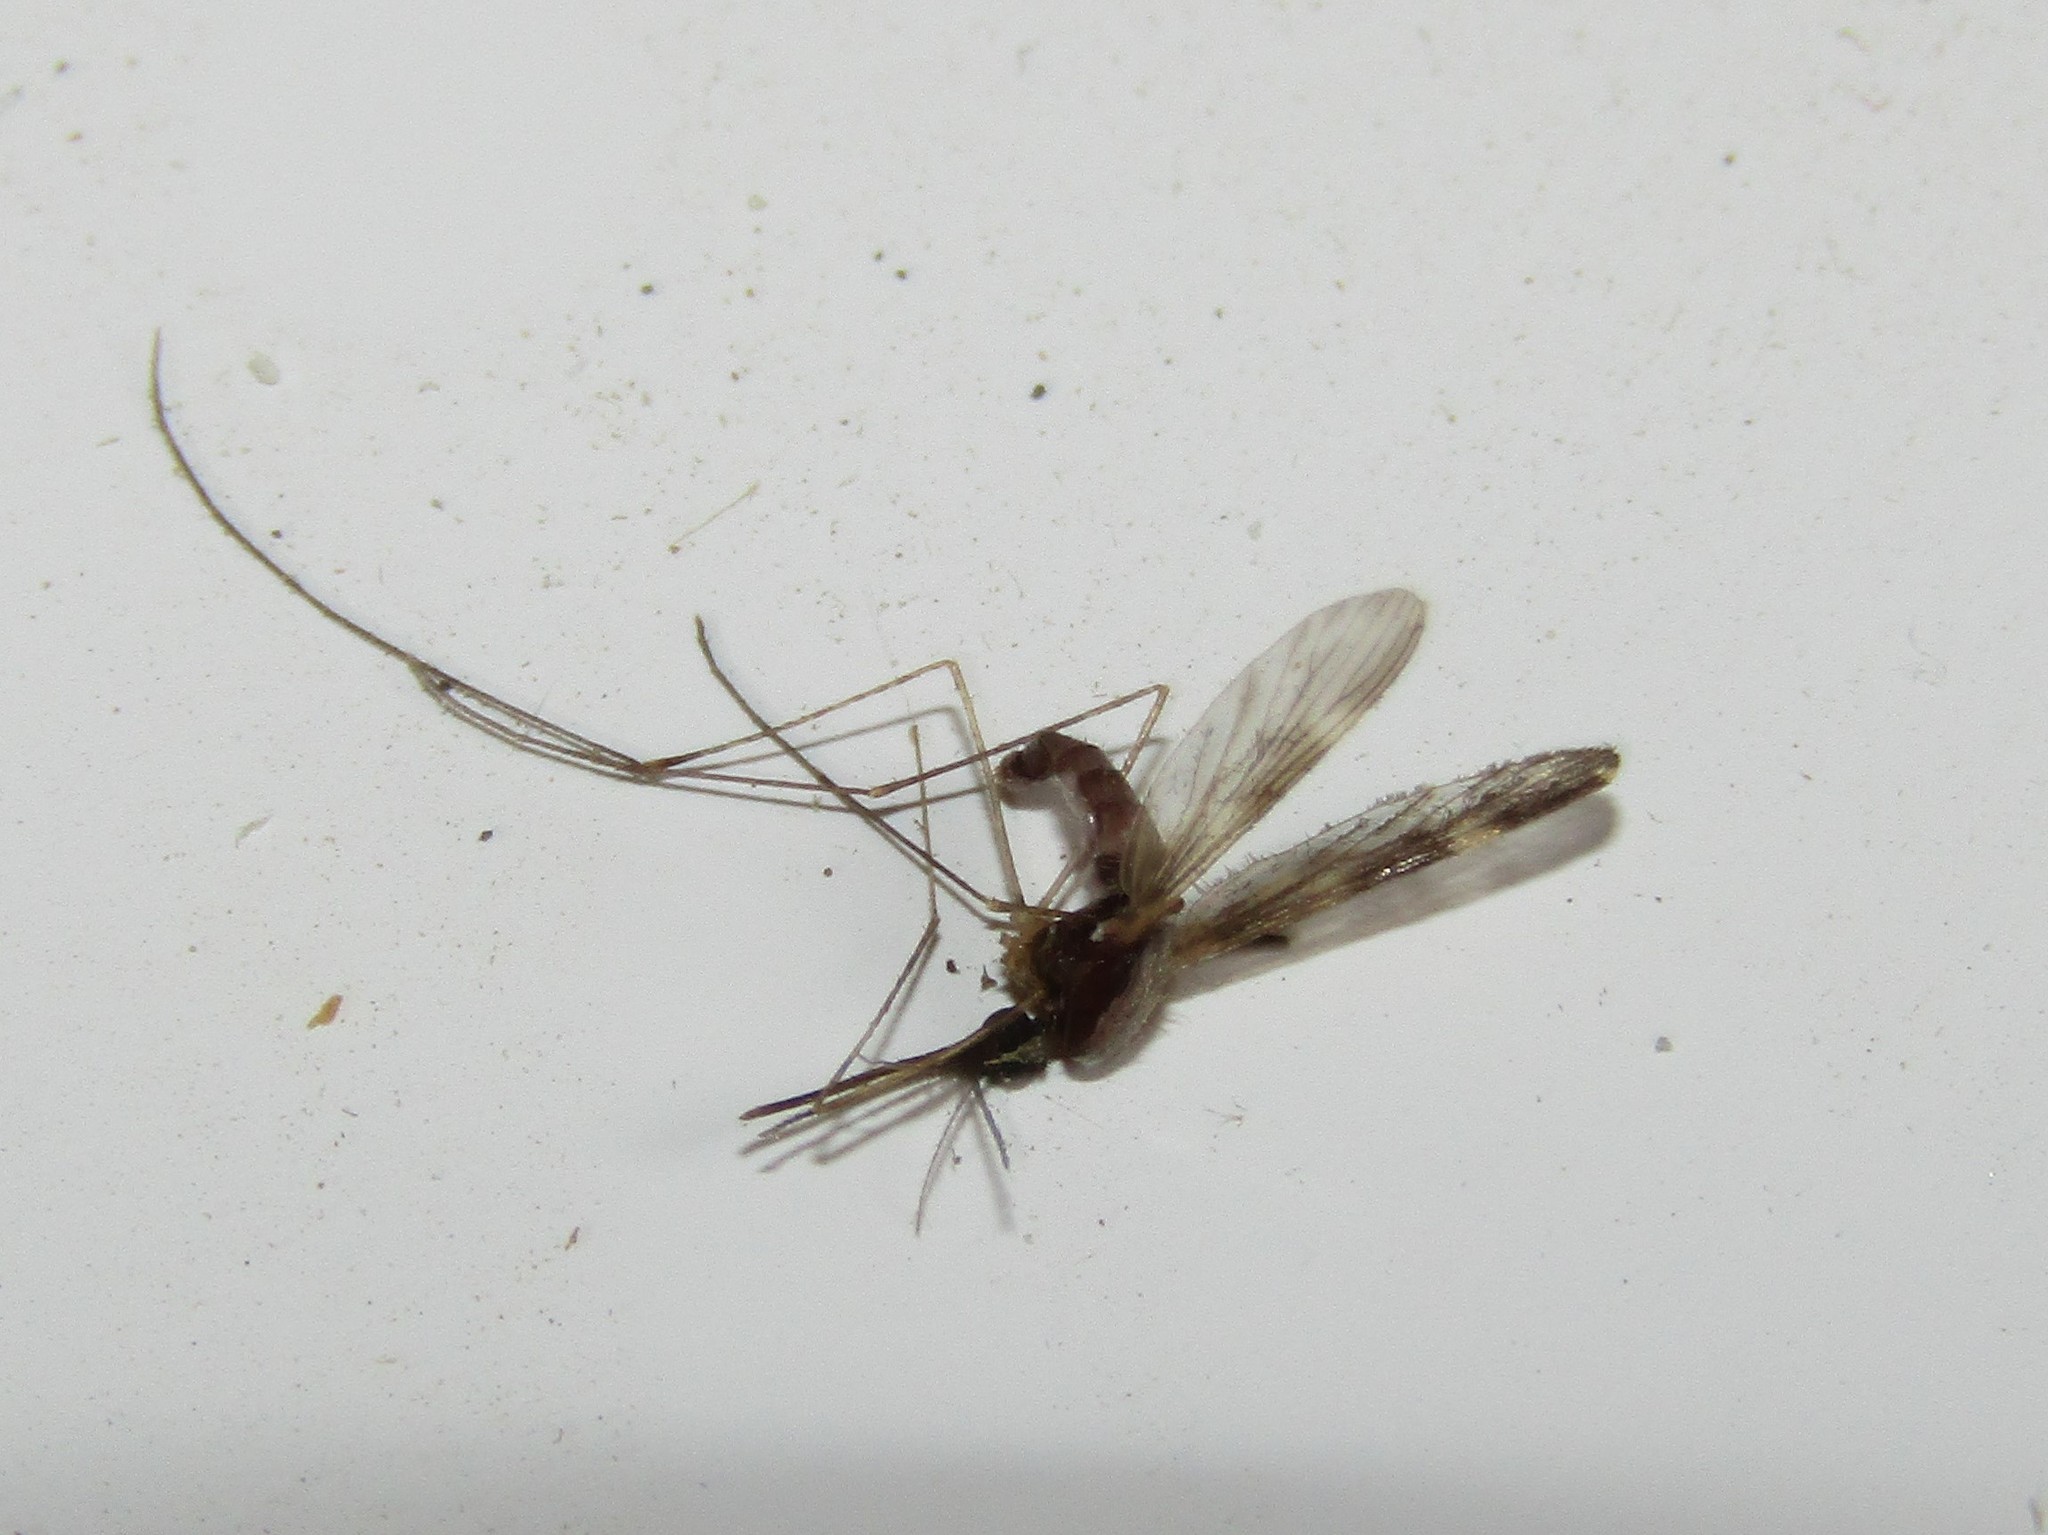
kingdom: Animalia
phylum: Arthropoda
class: Insecta
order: Diptera
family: Culicidae
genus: Anopheles
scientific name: Anopheles punctipennis
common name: Woodland malaria mosquito
